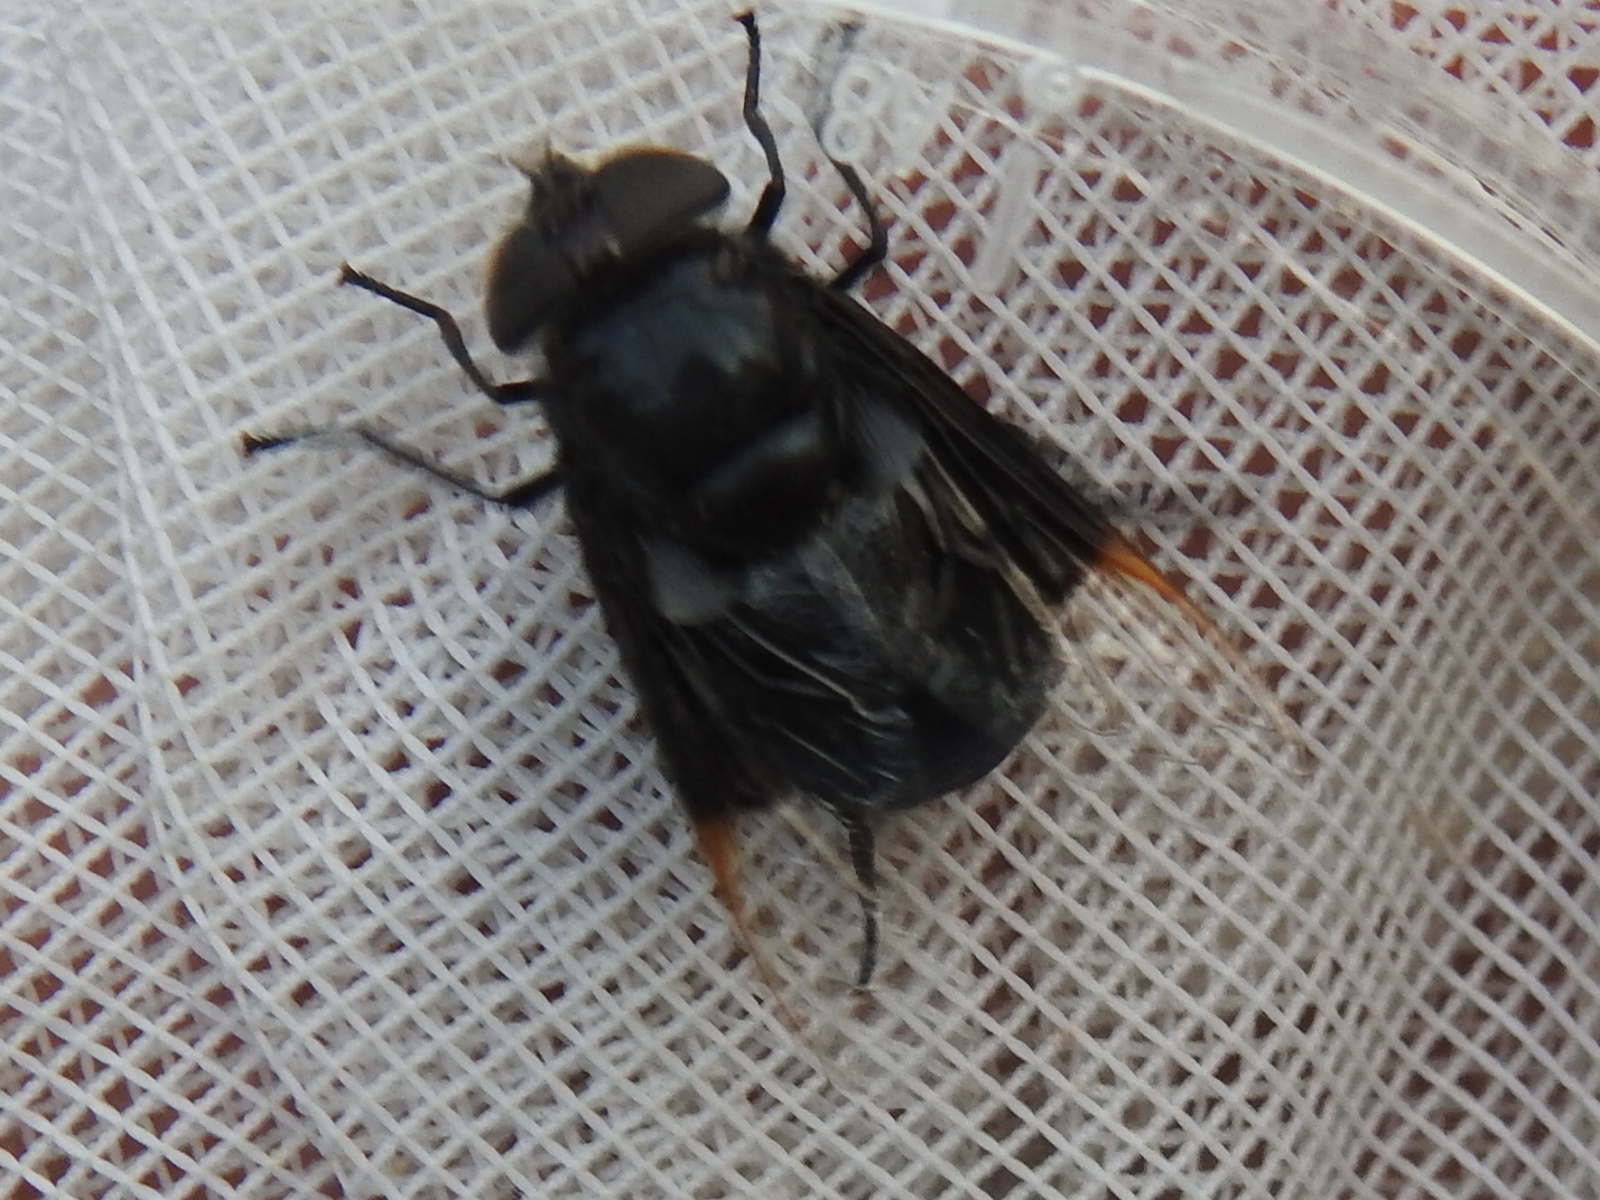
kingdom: Animalia
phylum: Arthropoda
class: Insecta
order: Diptera
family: Syrphidae
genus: Copestylum
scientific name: Copestylum mexicanum
